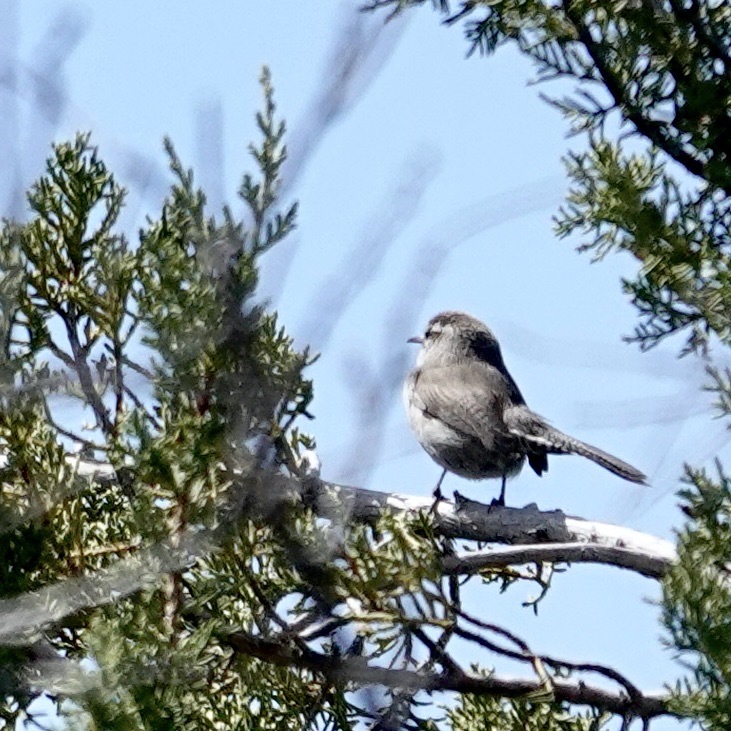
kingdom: Animalia
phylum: Chordata
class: Aves
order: Passeriformes
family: Troglodytidae
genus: Thryomanes
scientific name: Thryomanes bewickii
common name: Bewick's wren
